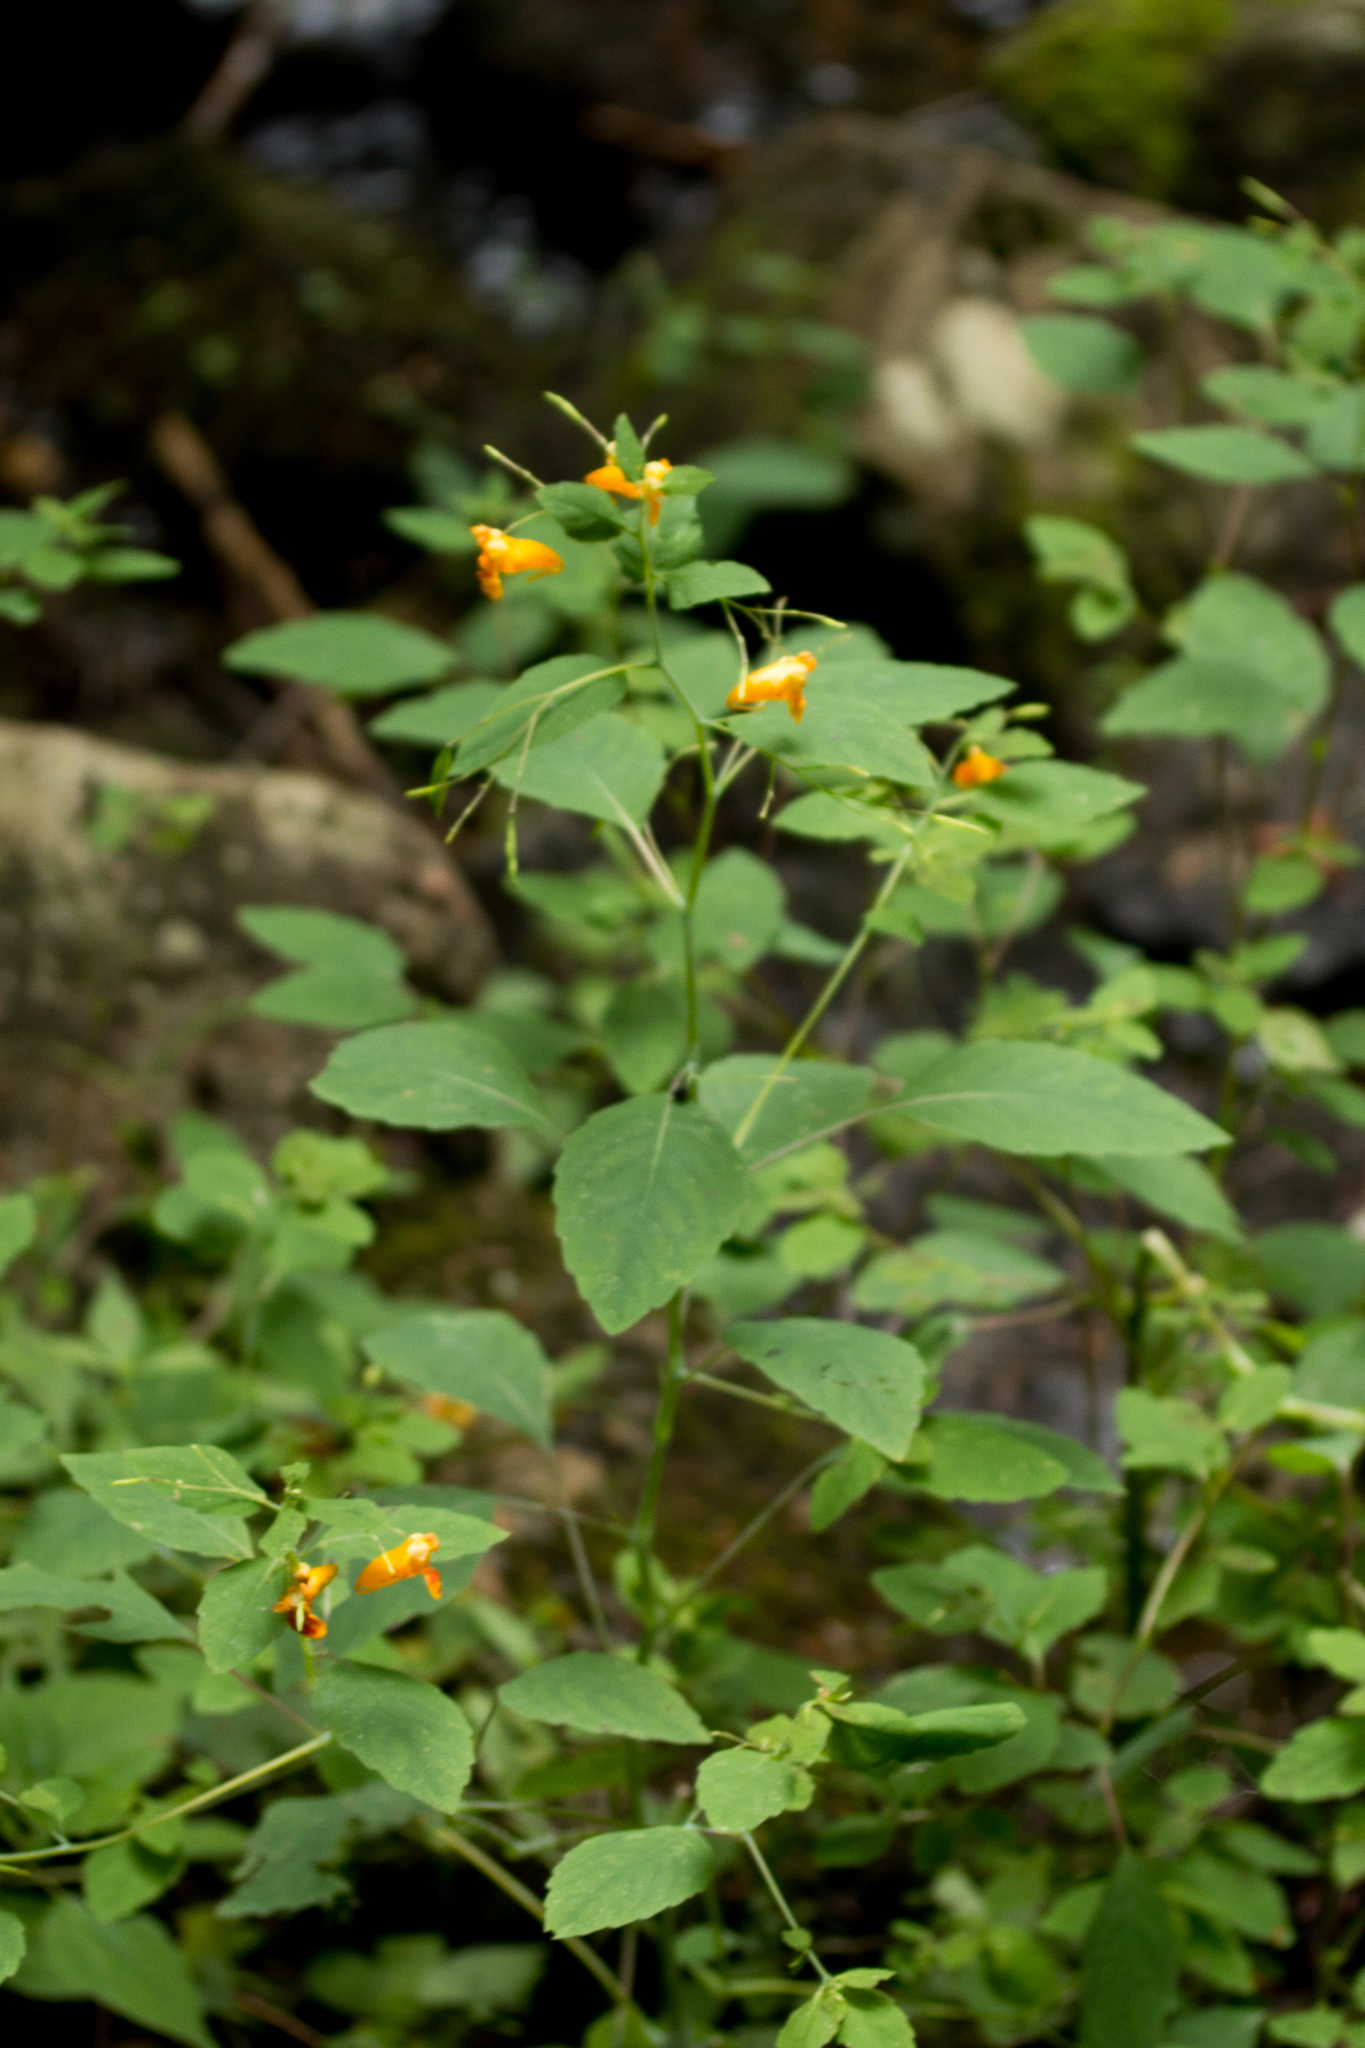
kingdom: Plantae
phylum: Tracheophyta
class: Magnoliopsida
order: Ericales
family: Balsaminaceae
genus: Impatiens
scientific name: Impatiens capensis
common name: Orange balsam
